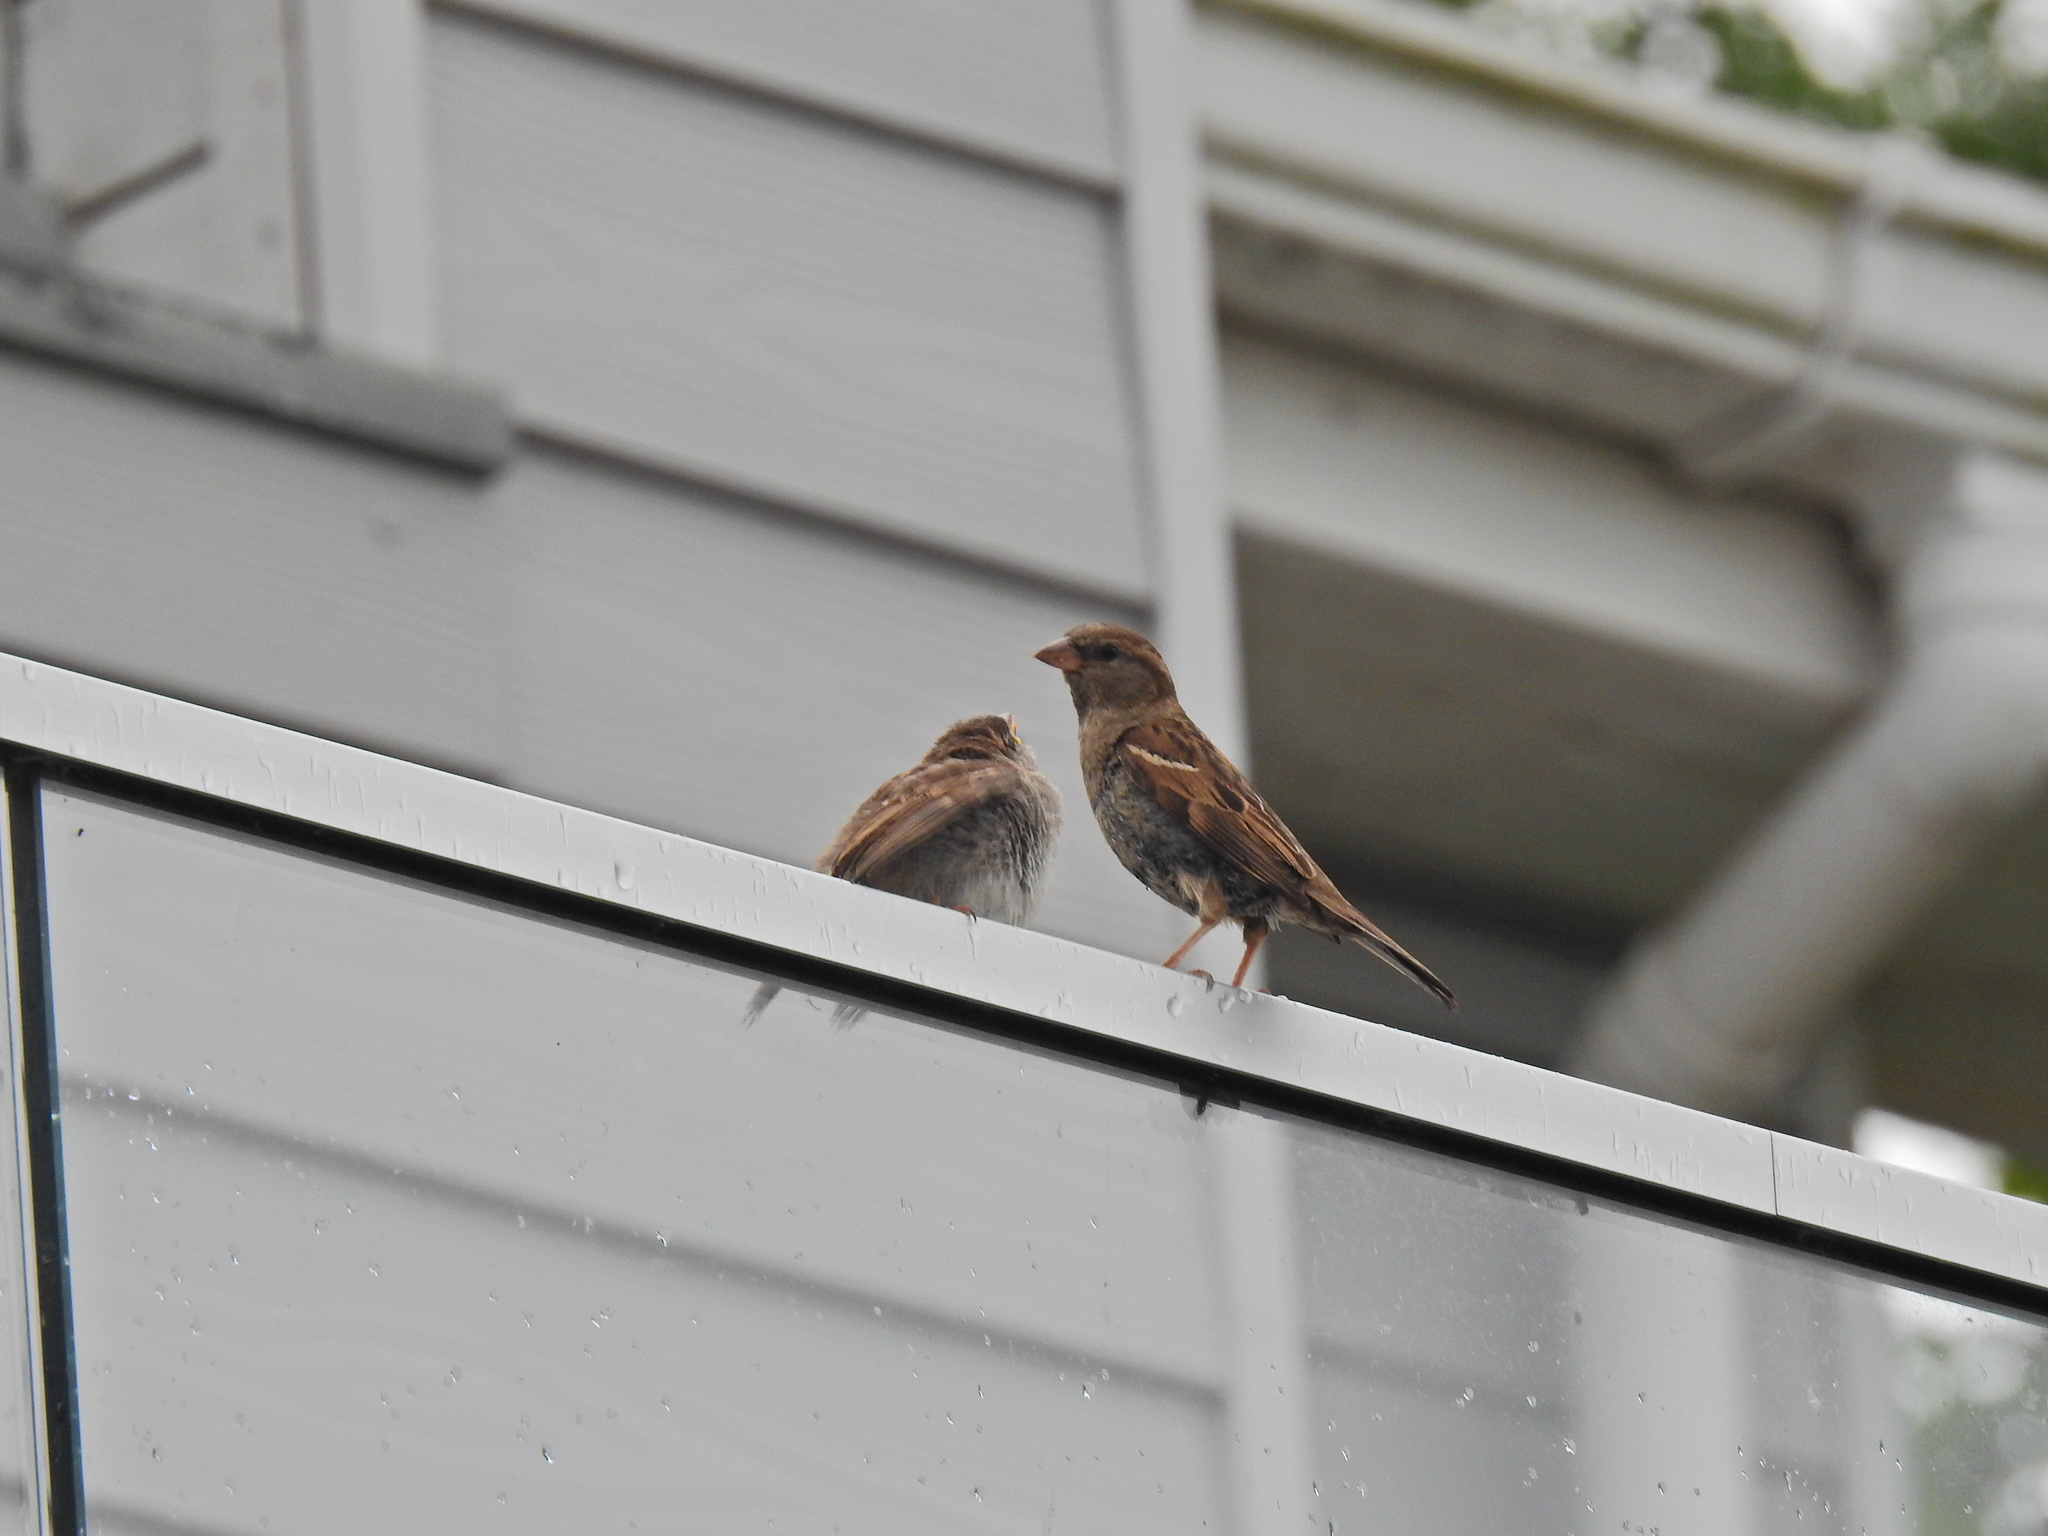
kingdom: Animalia
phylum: Chordata
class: Aves
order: Passeriformes
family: Passeridae
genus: Passer
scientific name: Passer domesticus
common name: House sparrow
